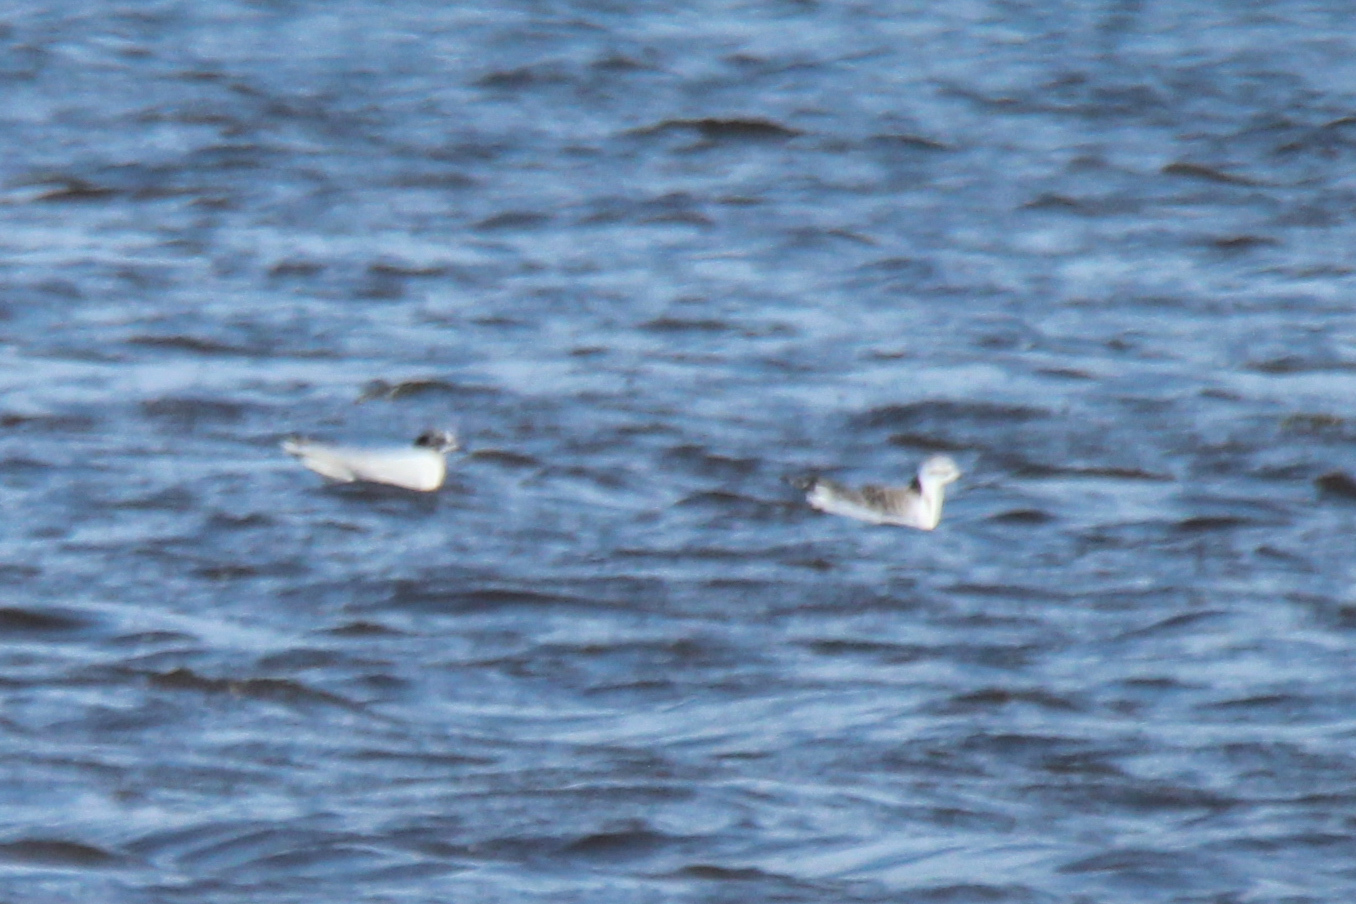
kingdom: Animalia
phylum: Chordata
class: Aves
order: Charadriiformes
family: Laridae
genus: Hydrocoloeus
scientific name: Hydrocoloeus minutus
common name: Little gull
